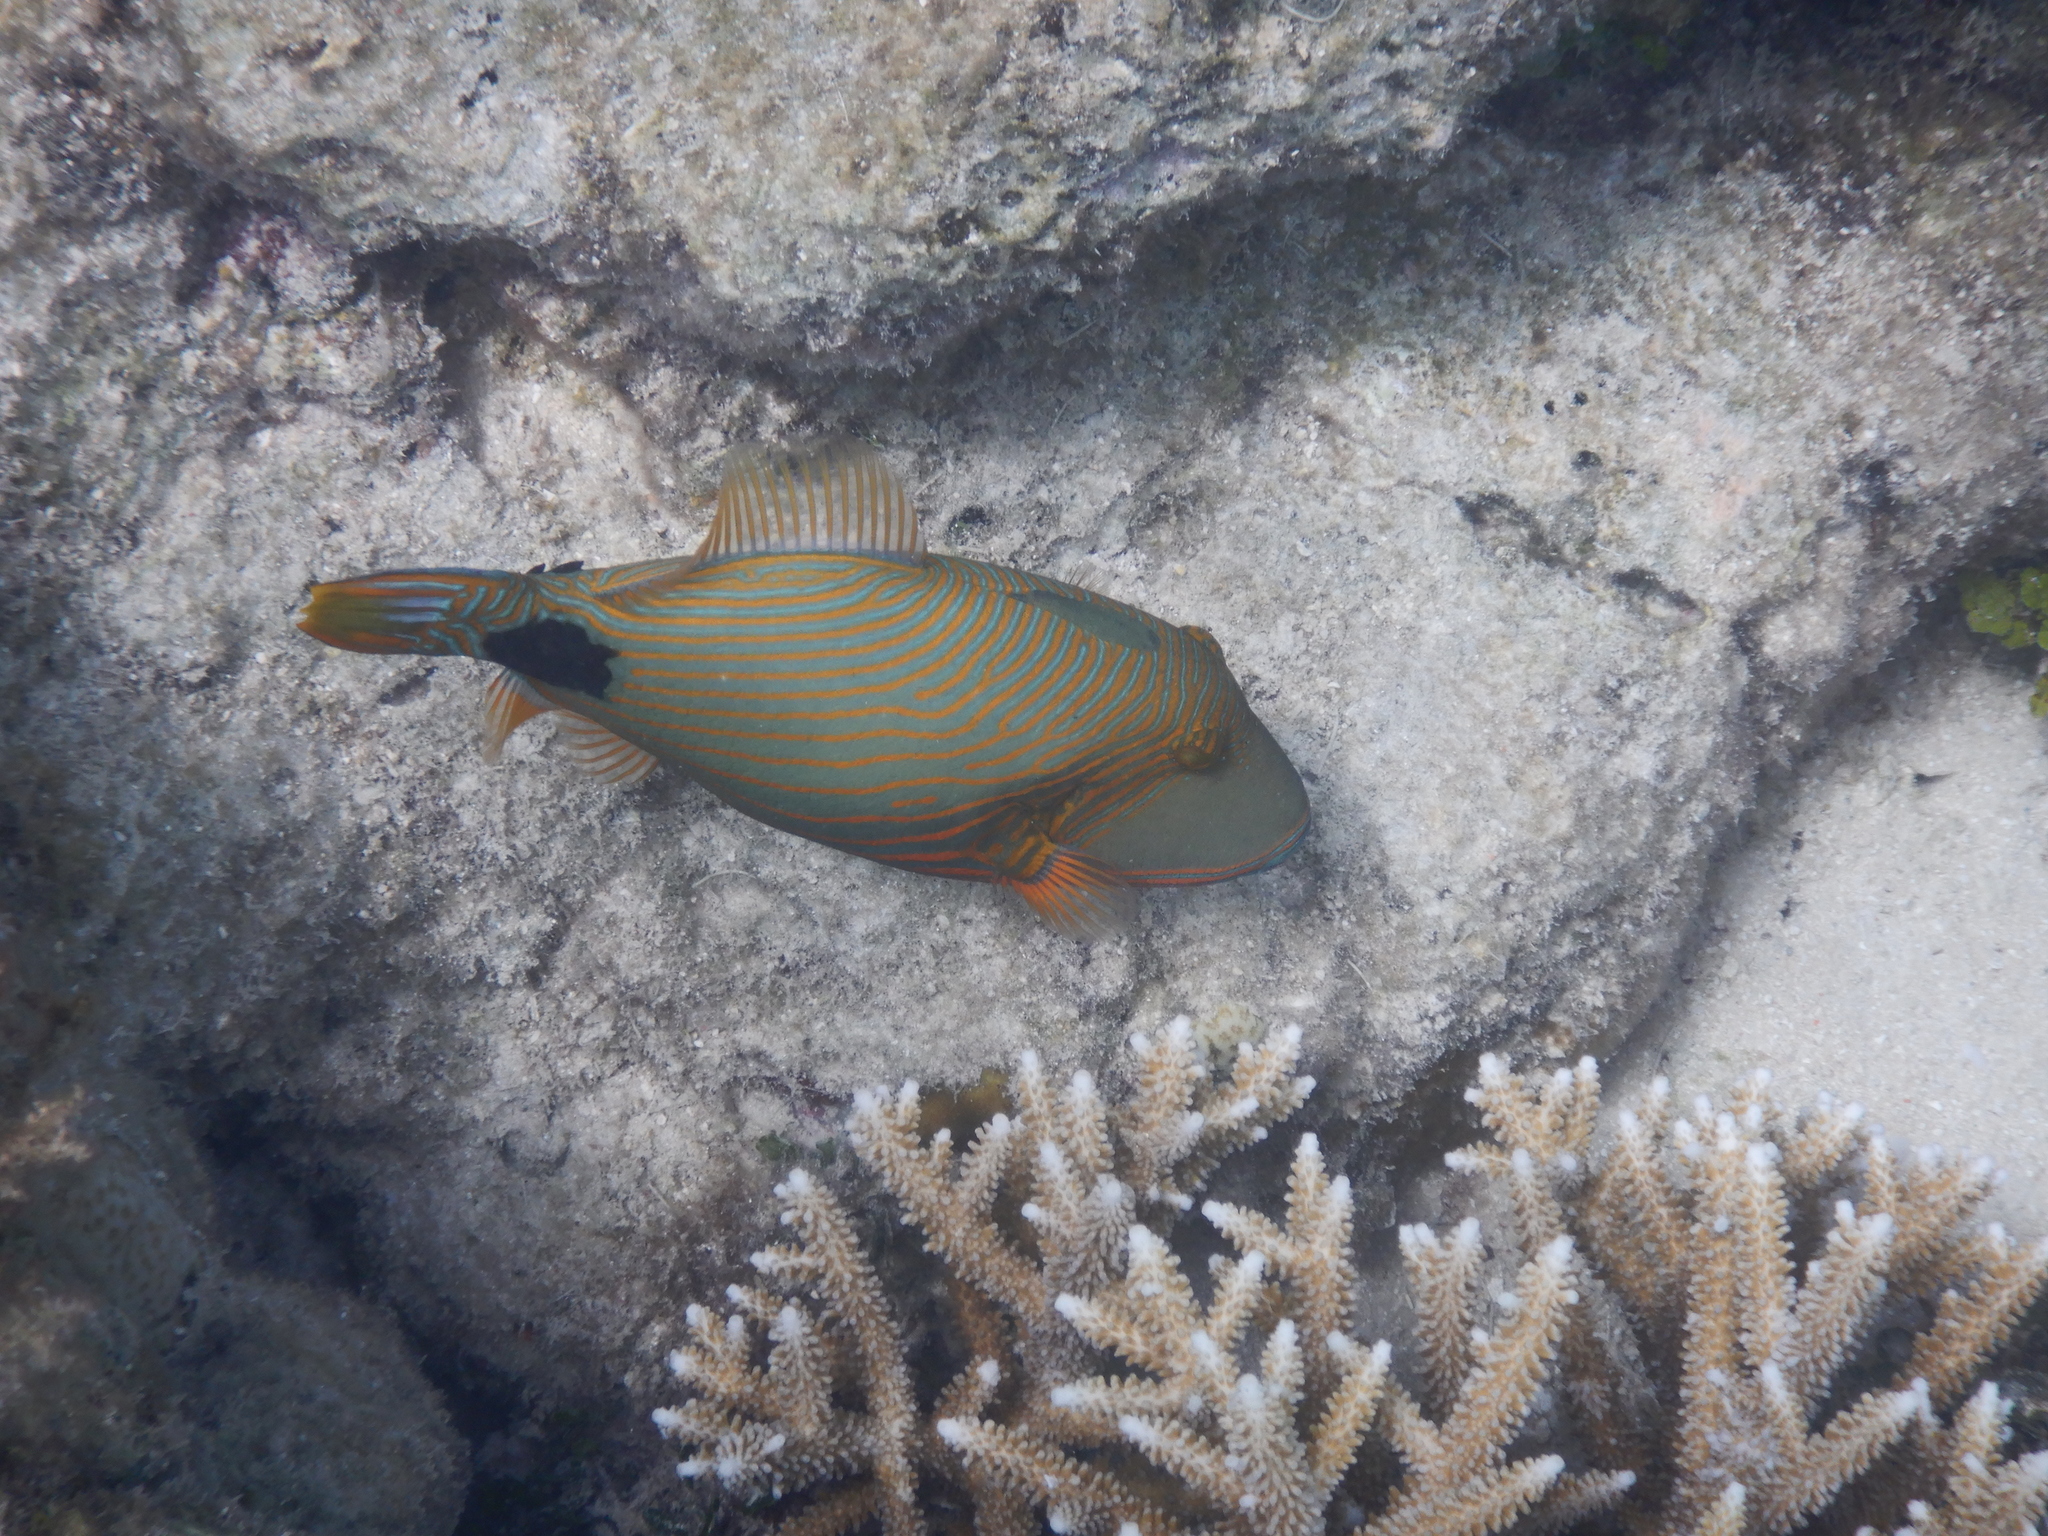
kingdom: Animalia
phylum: Chordata
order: Tetraodontiformes
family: Balistidae
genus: Balistapus
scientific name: Balistapus undulatus
